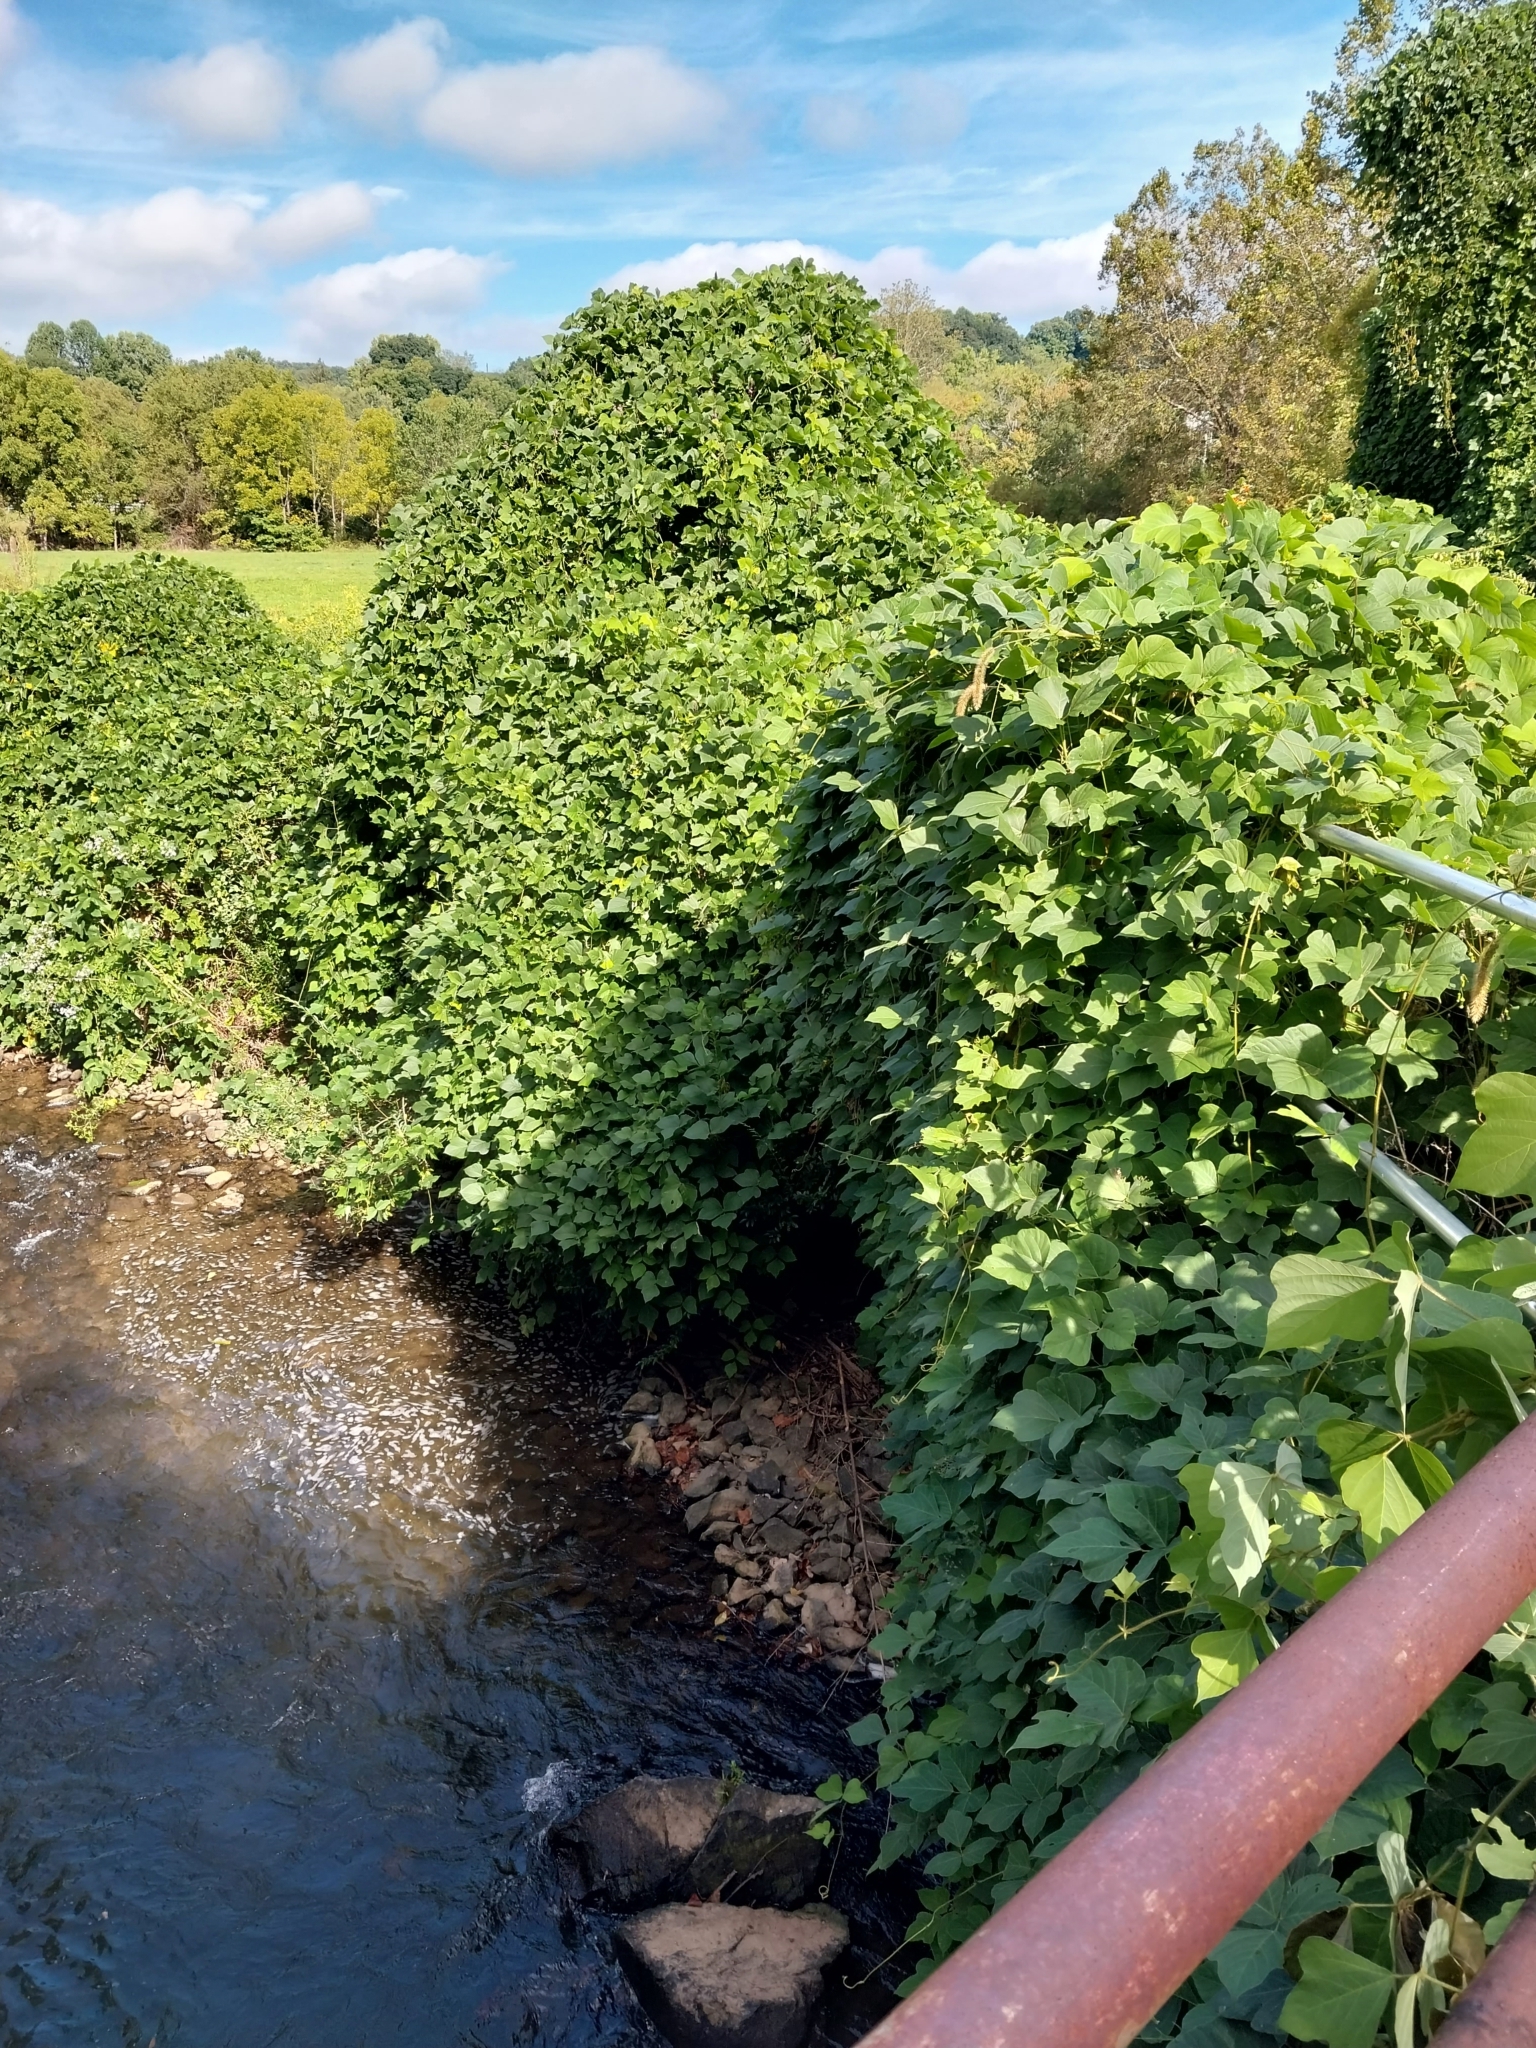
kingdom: Plantae
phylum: Tracheophyta
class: Magnoliopsida
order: Fabales
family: Fabaceae
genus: Pueraria
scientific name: Pueraria montana
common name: Kudzu
